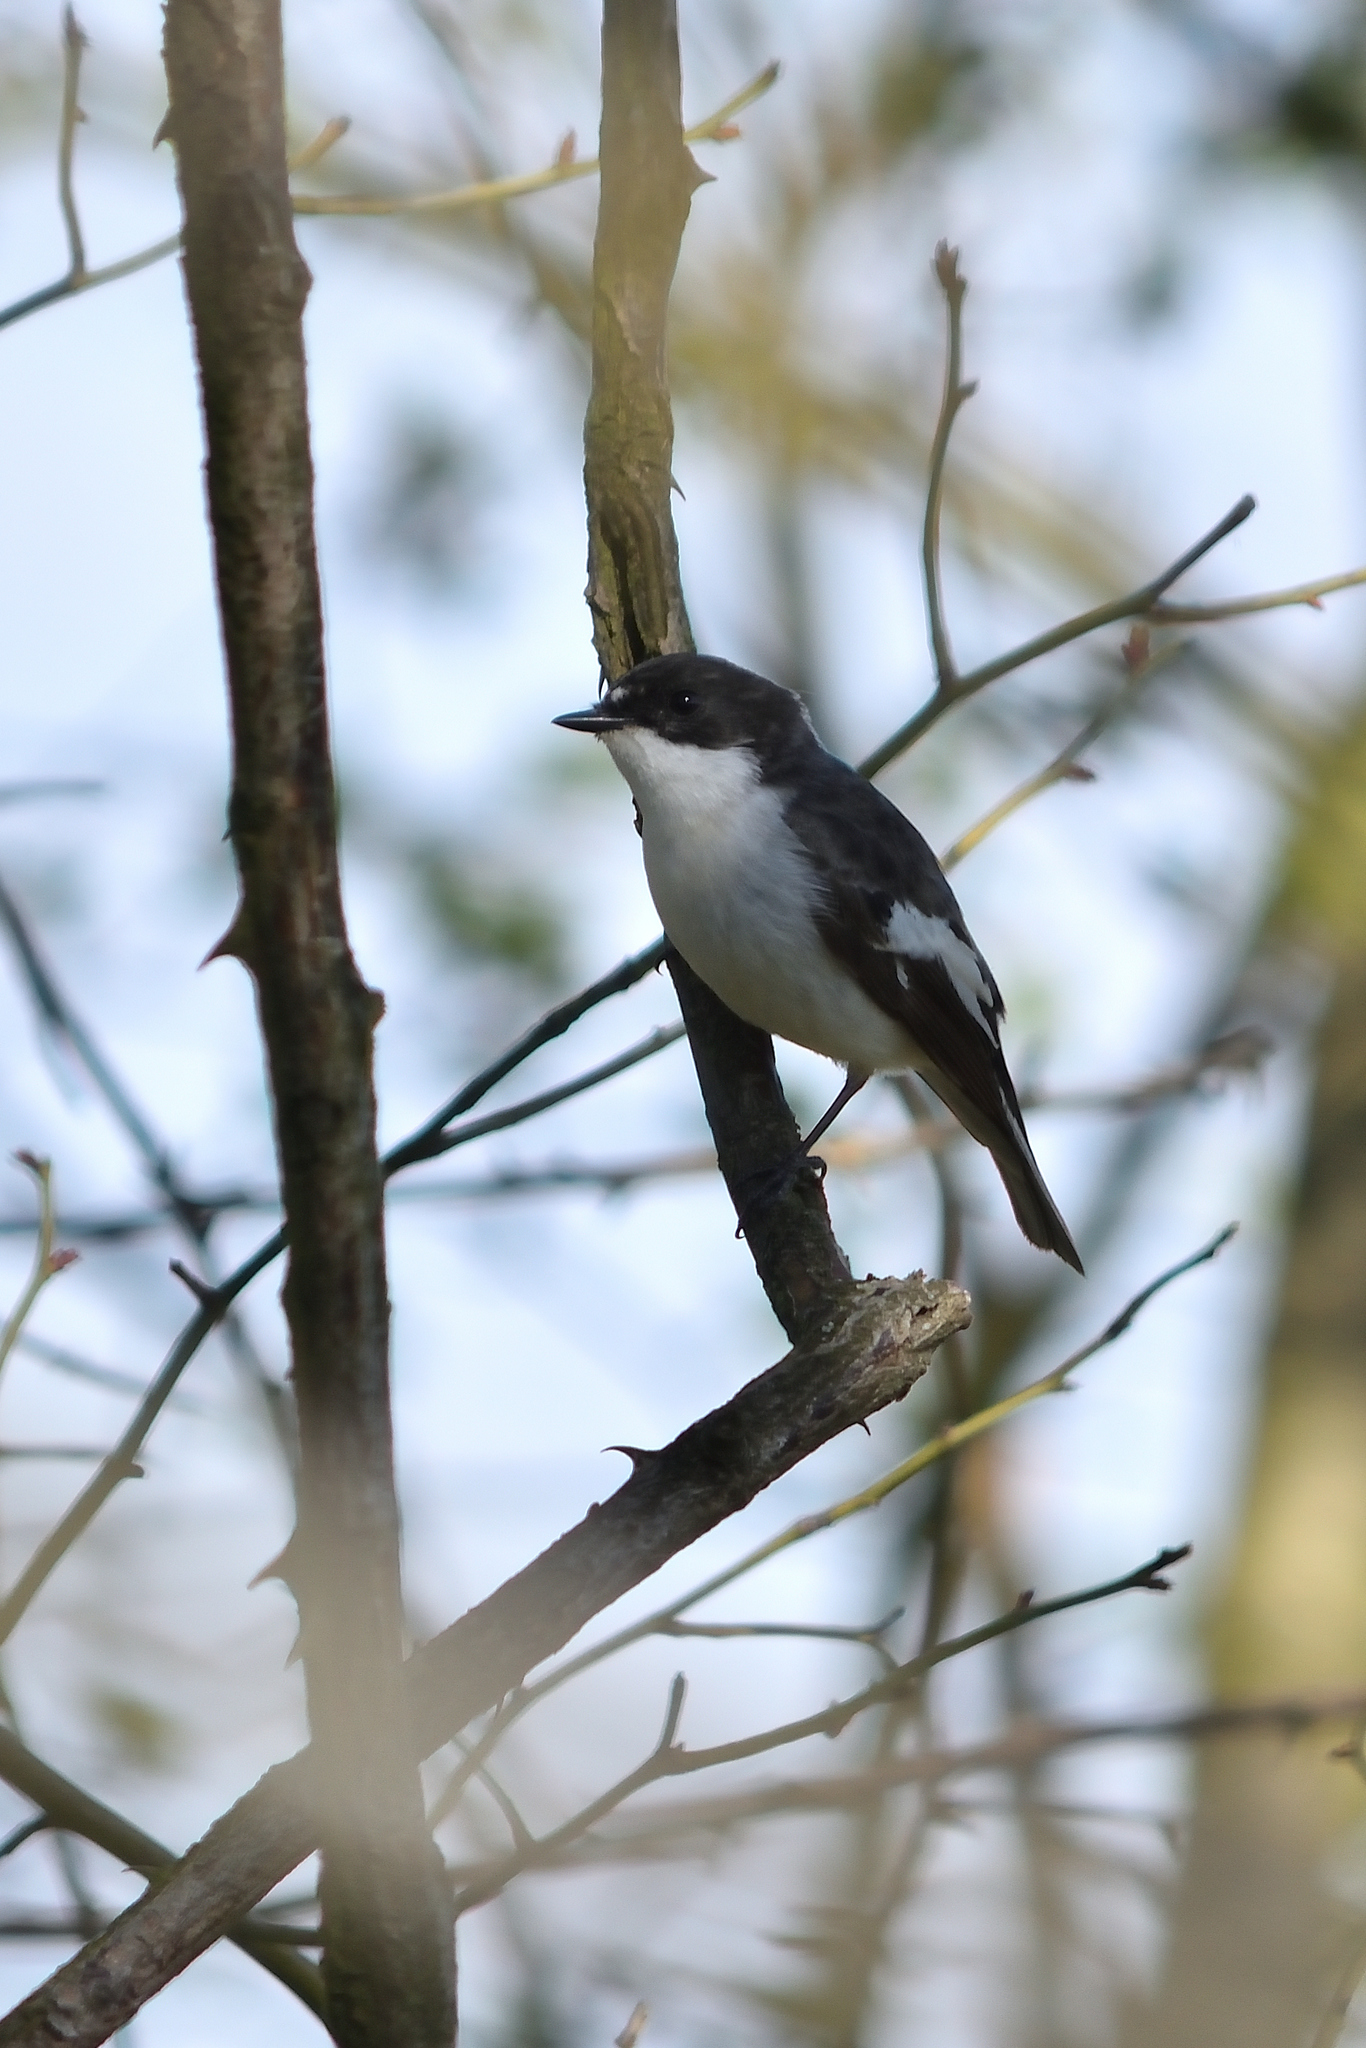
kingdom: Animalia
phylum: Chordata
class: Aves
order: Passeriformes
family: Muscicapidae
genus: Ficedula
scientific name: Ficedula hypoleuca
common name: European pied flycatcher
